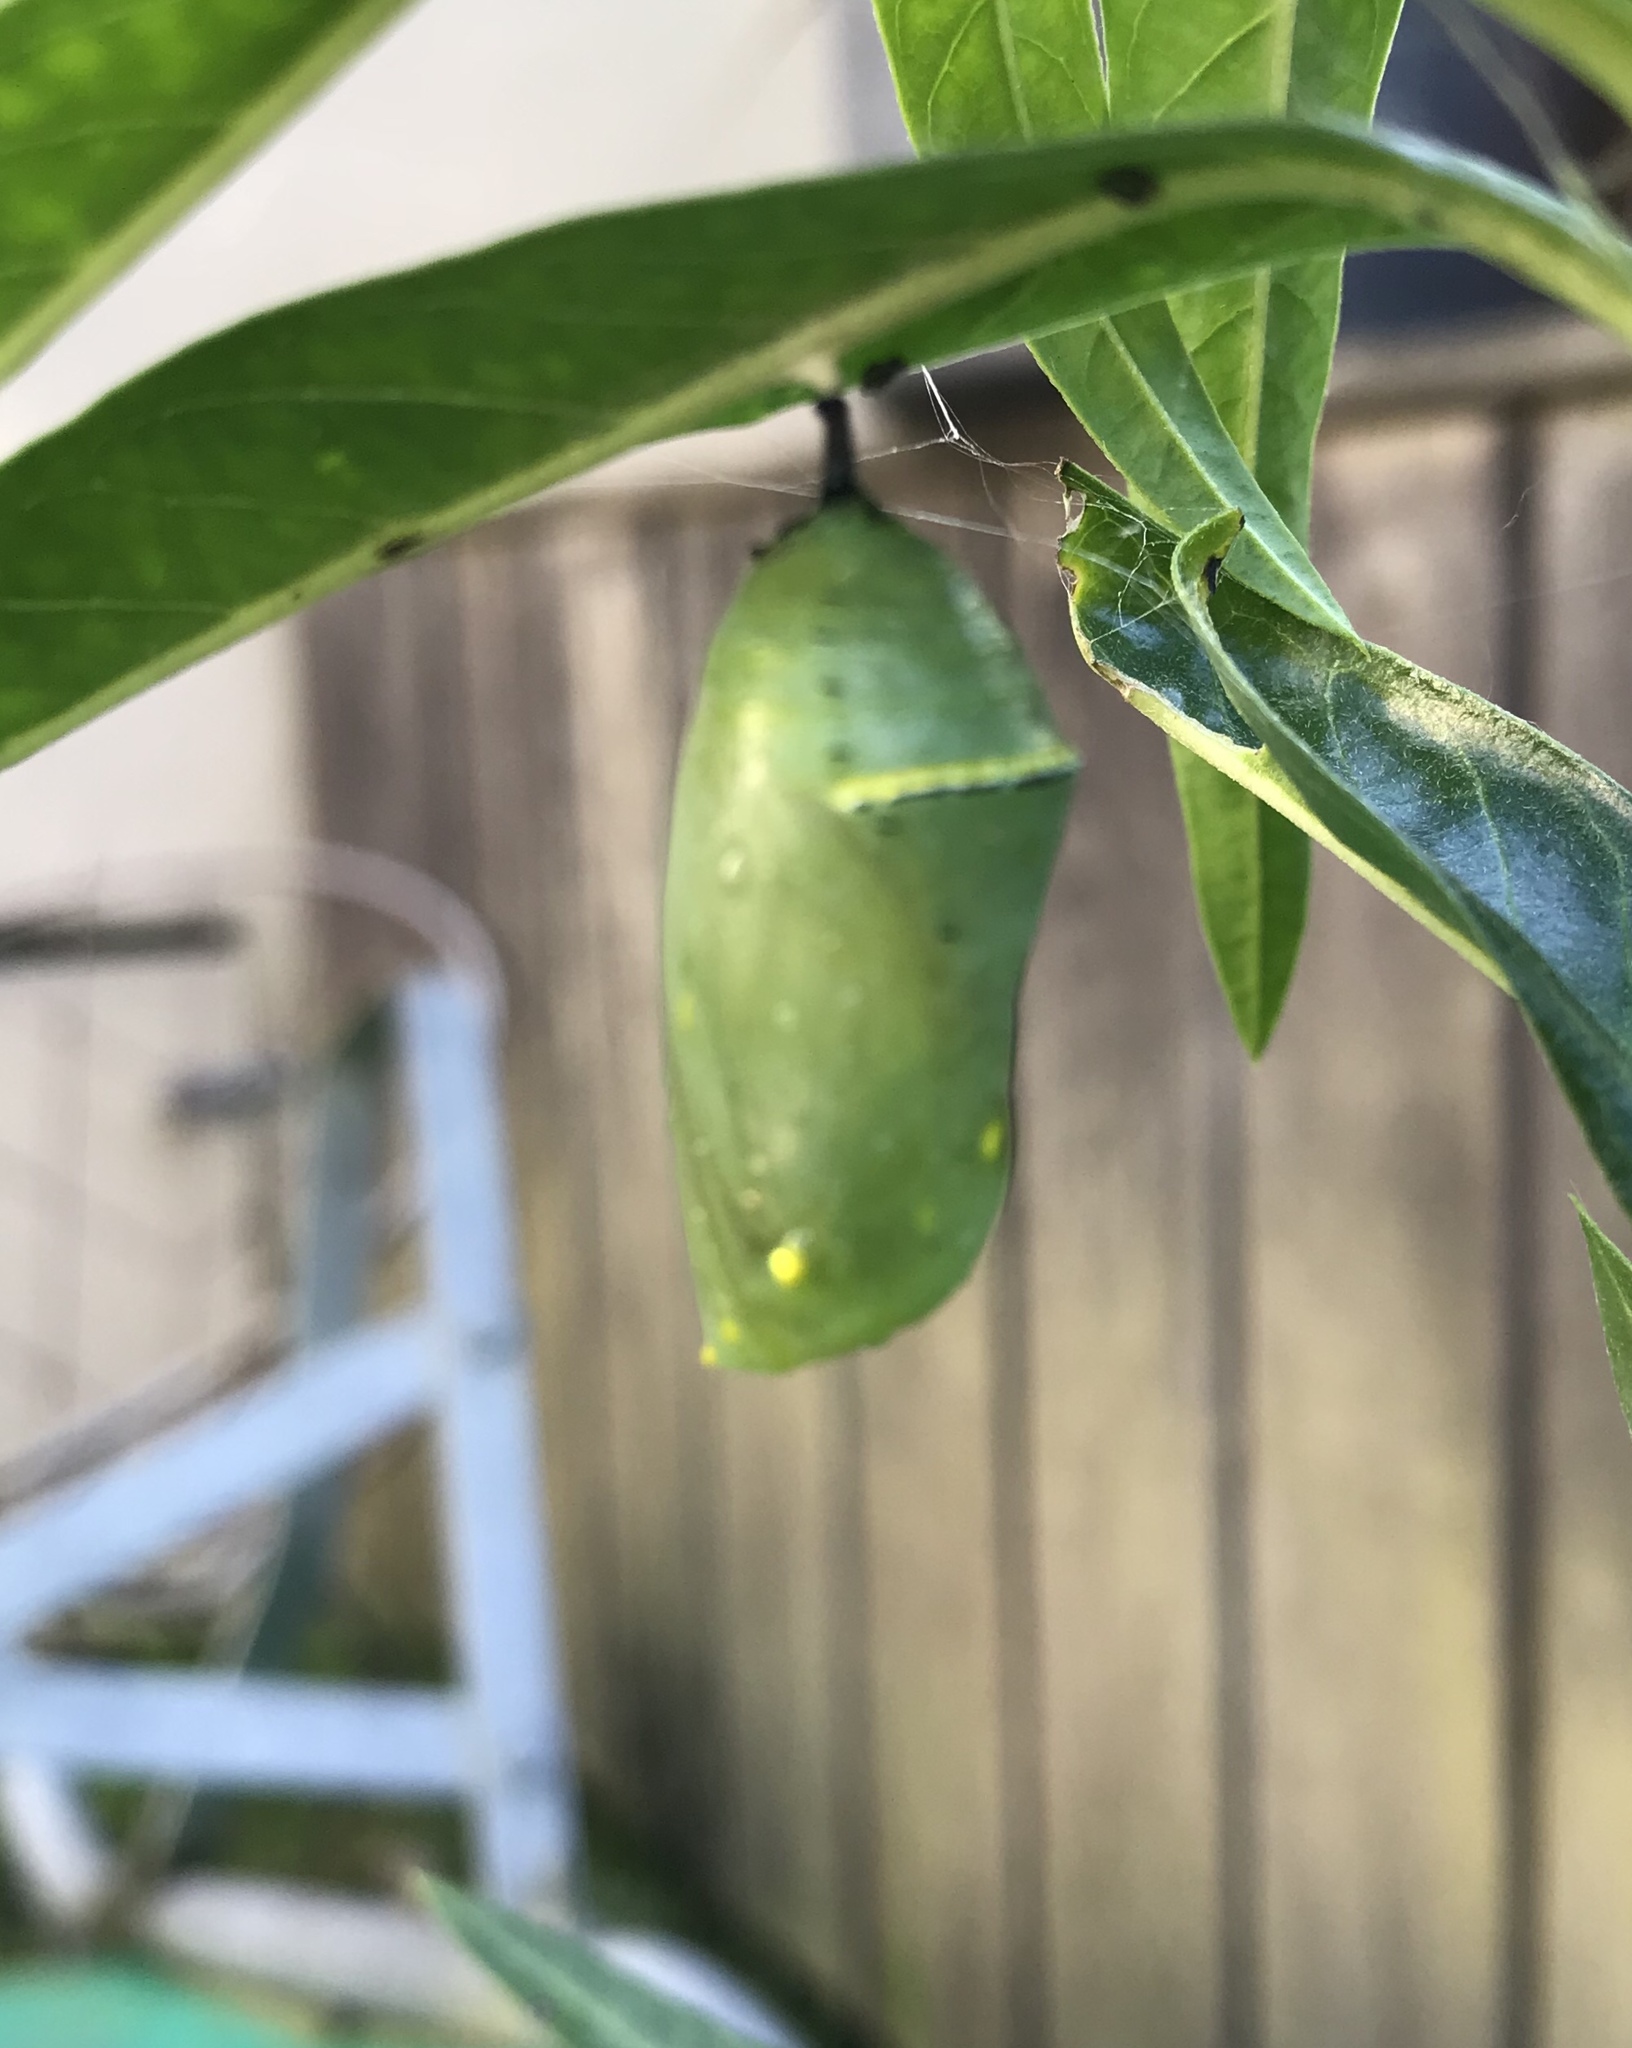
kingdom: Animalia
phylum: Arthropoda
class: Insecta
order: Lepidoptera
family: Nymphalidae
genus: Danaus
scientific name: Danaus plexippus
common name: Monarch
